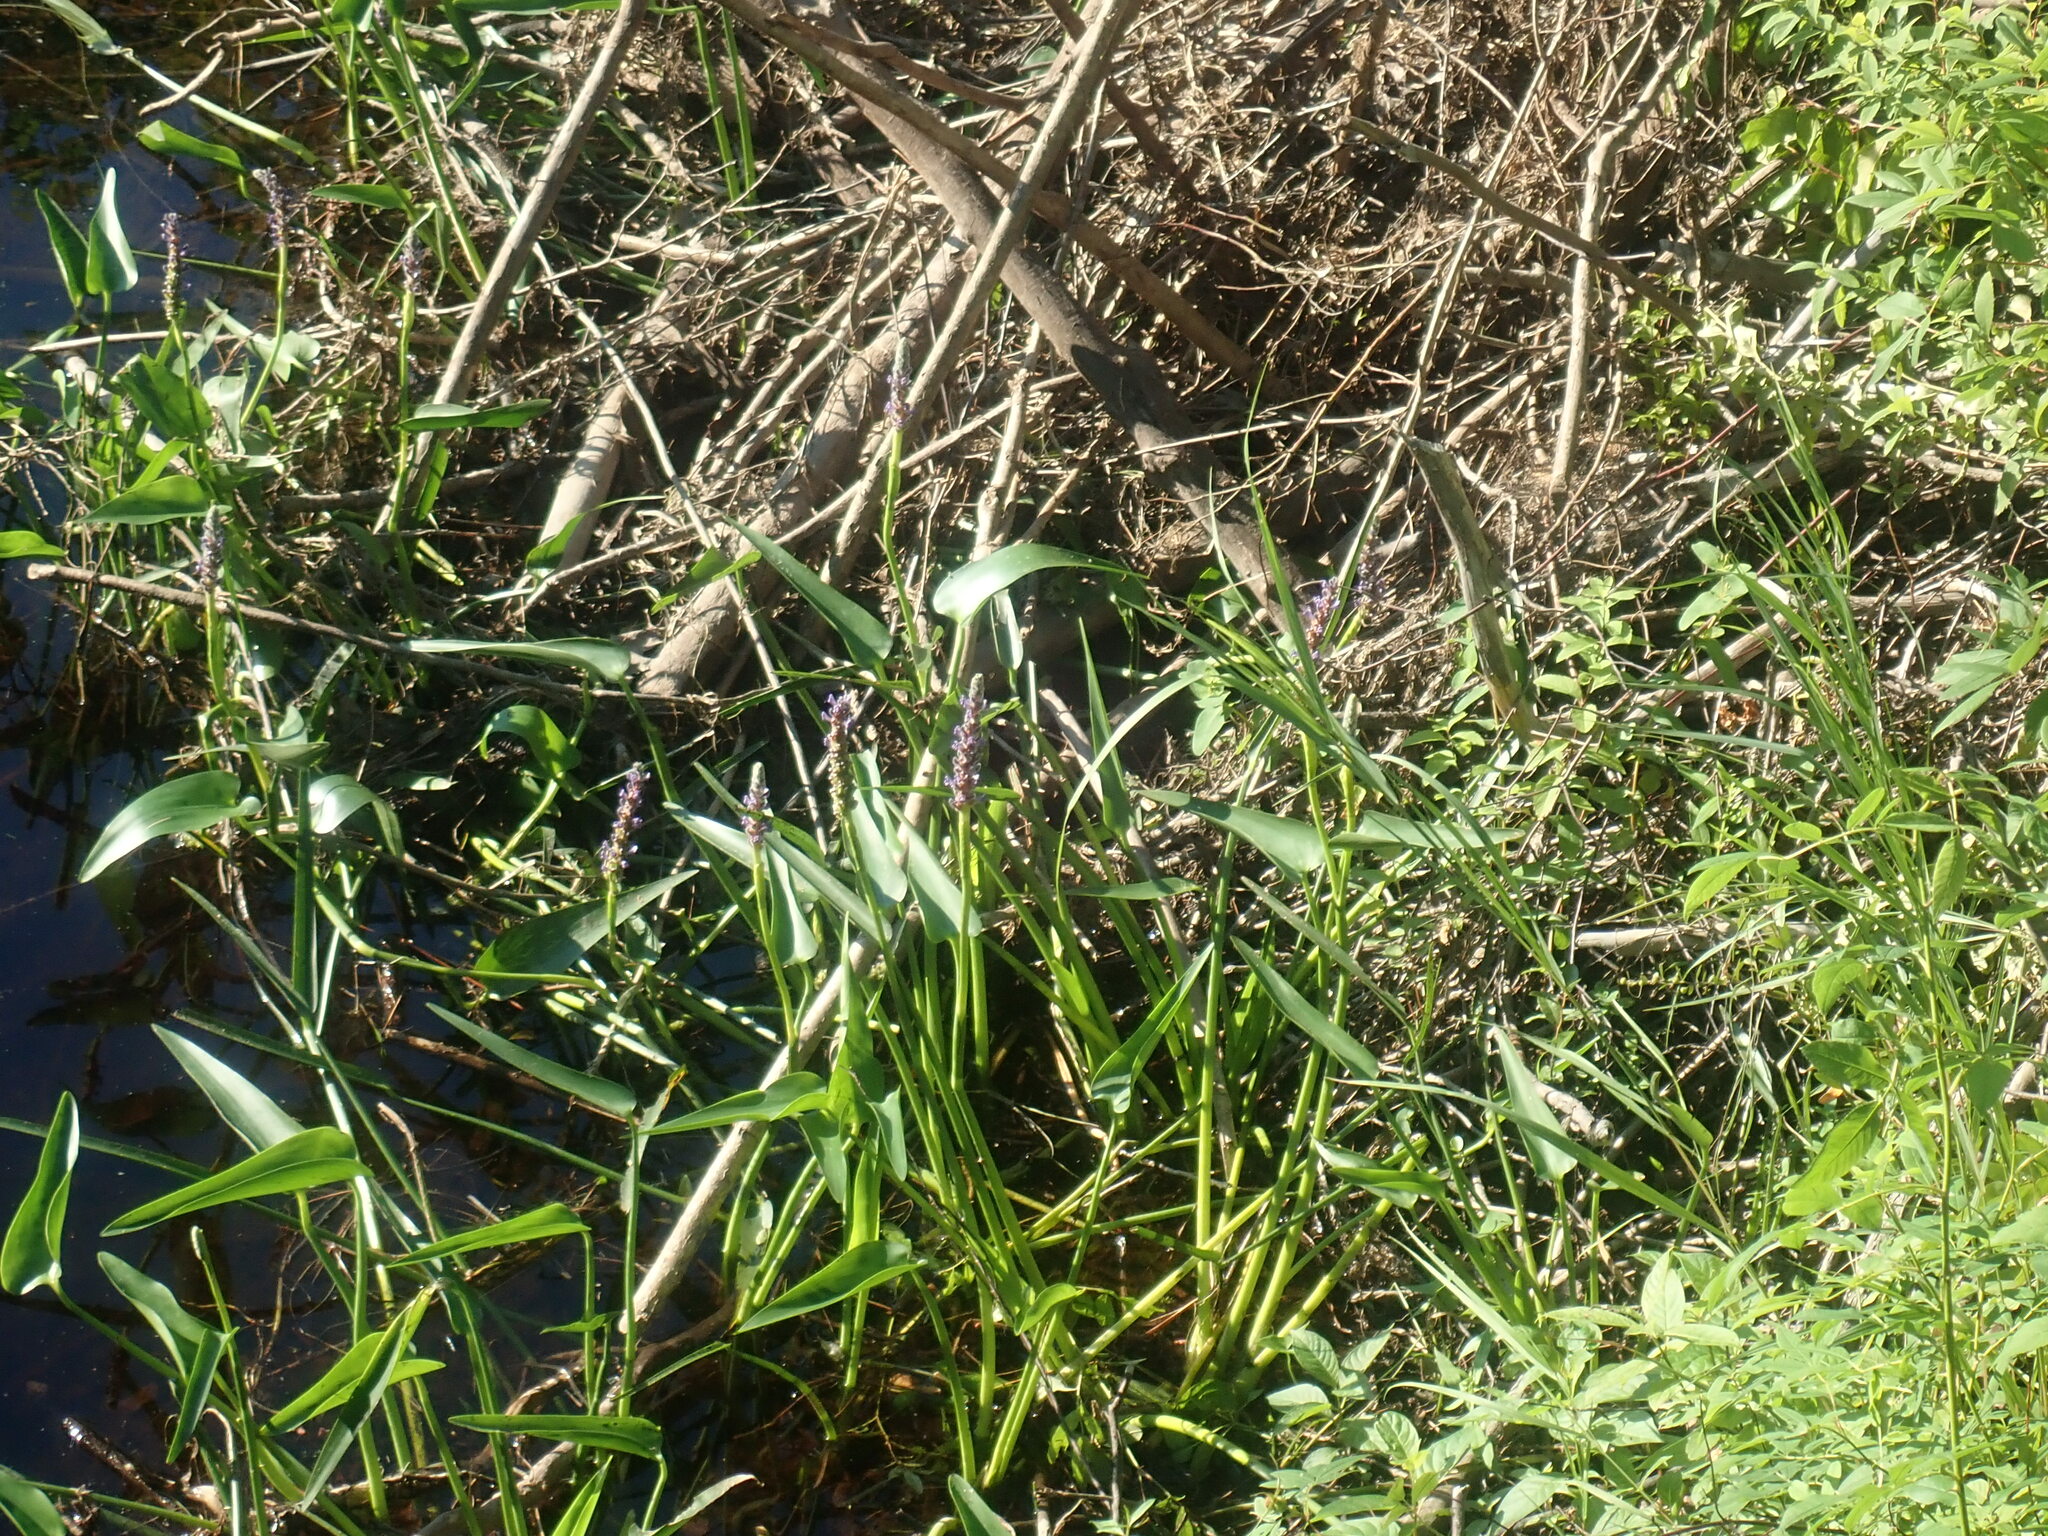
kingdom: Plantae
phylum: Tracheophyta
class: Liliopsida
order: Commelinales
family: Pontederiaceae
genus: Pontederia
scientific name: Pontederia cordata
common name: Pickerelweed
